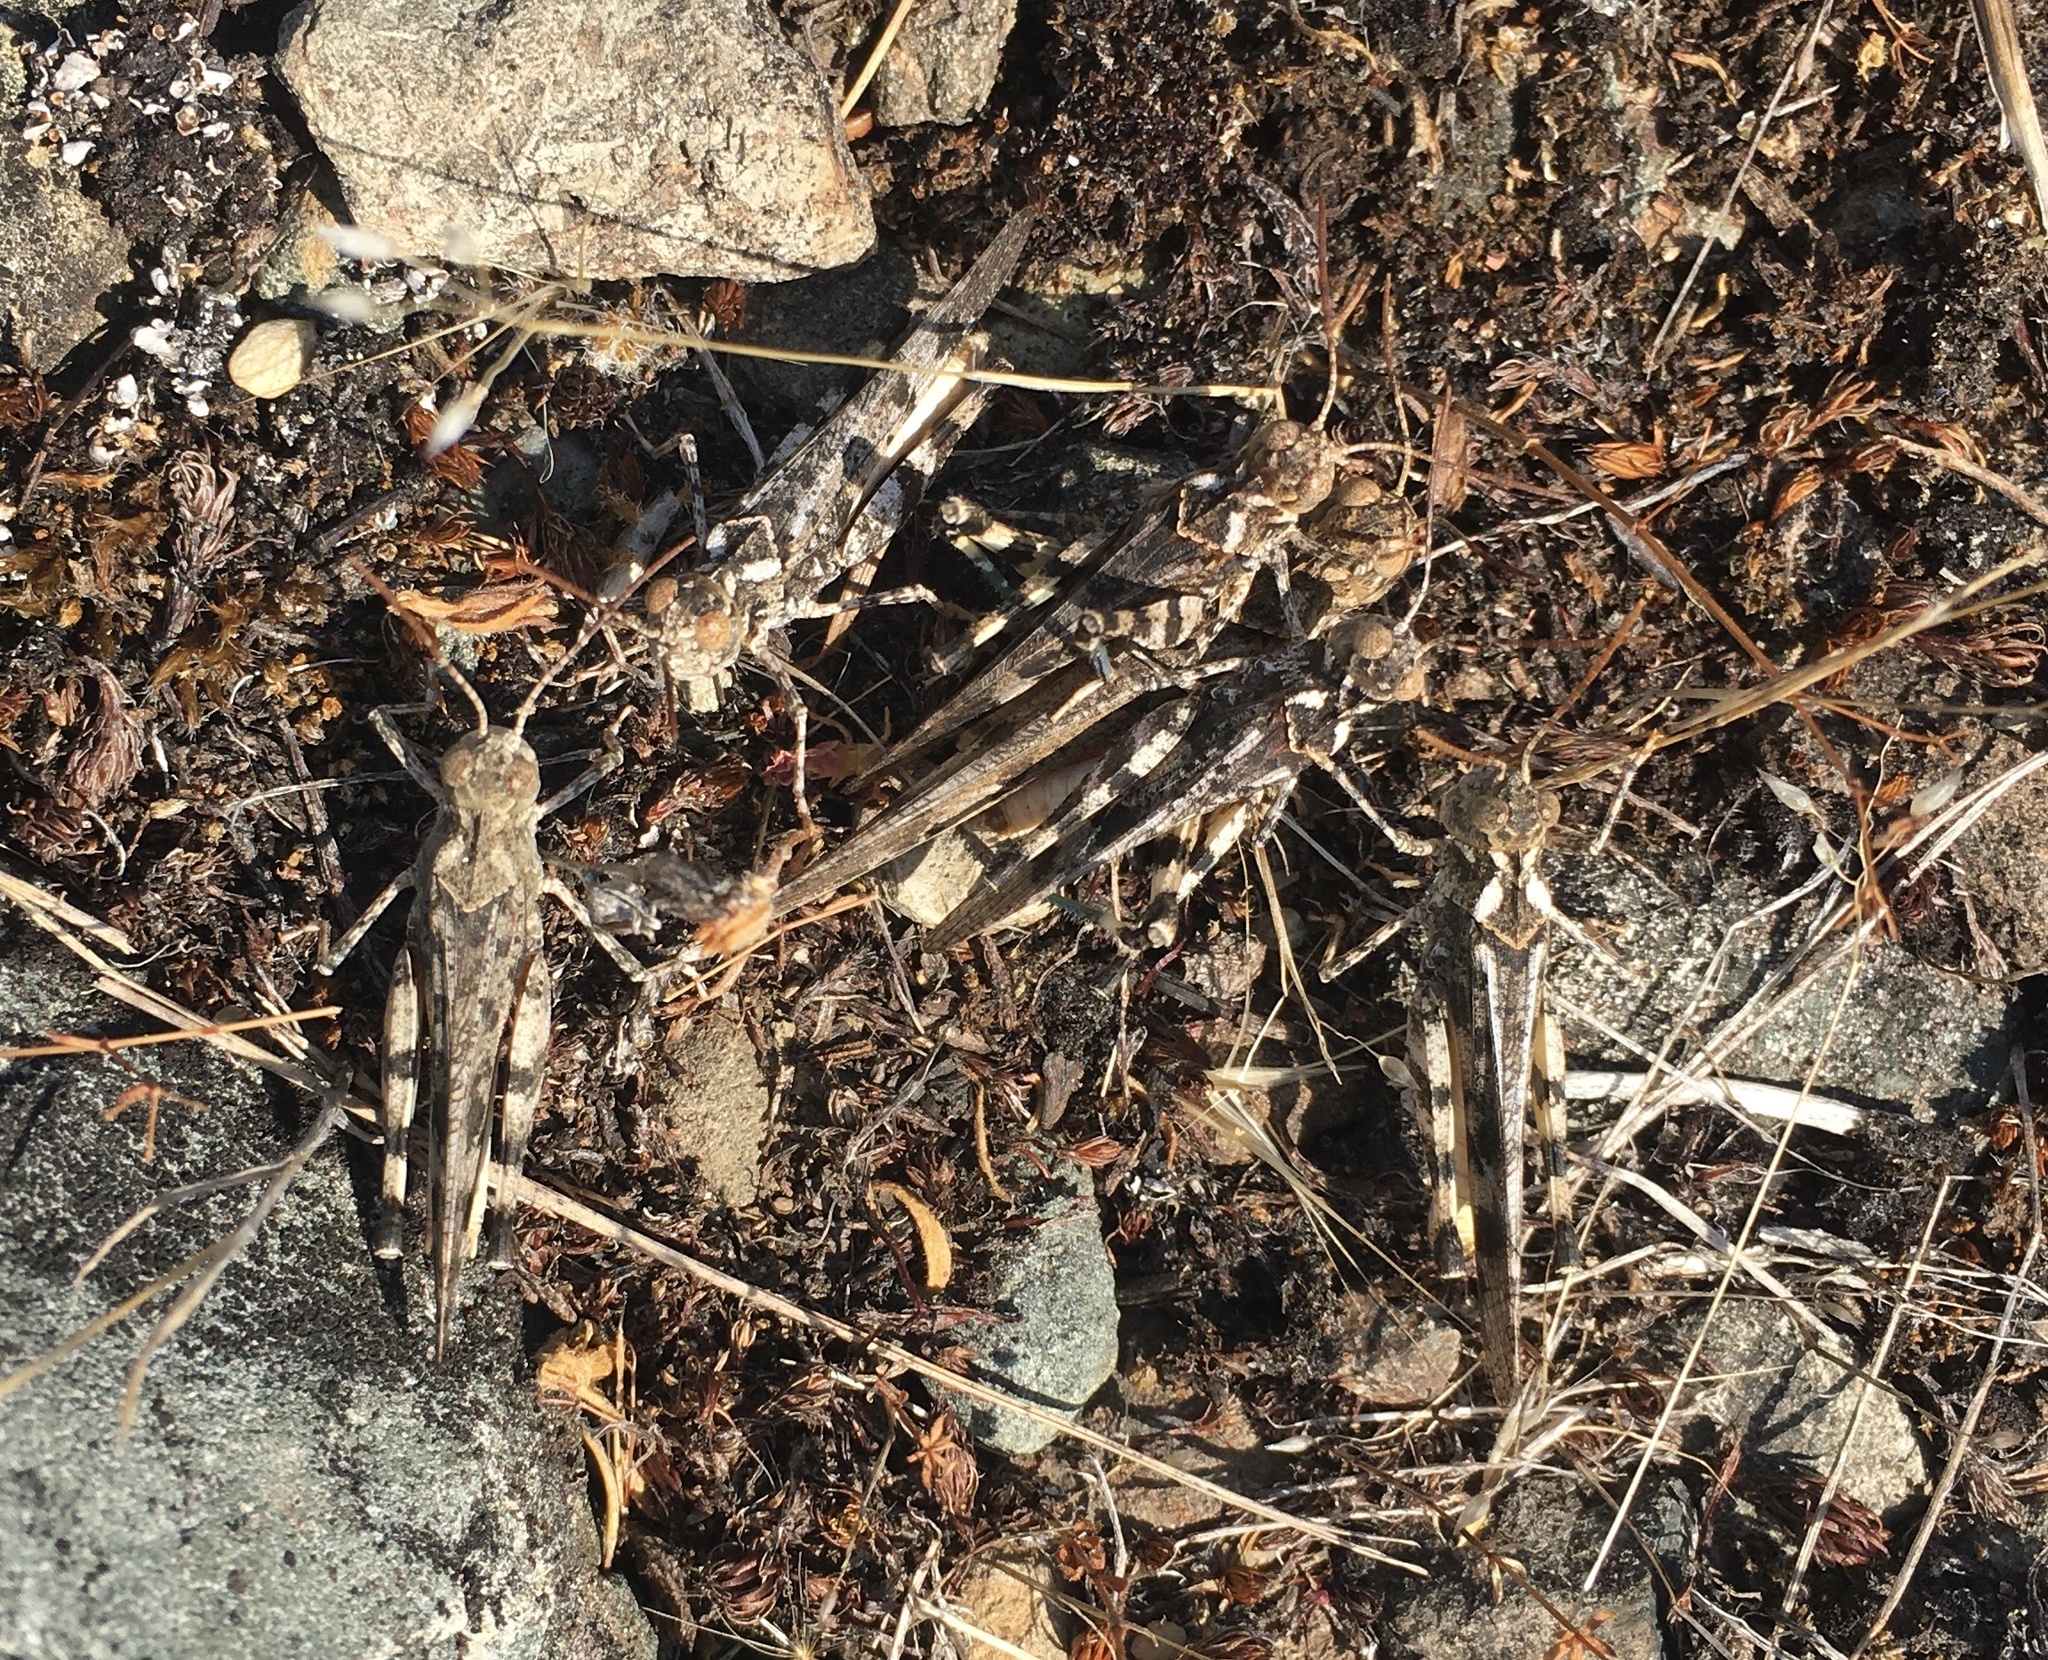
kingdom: Animalia
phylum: Arthropoda
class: Insecta
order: Orthoptera
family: Acrididae
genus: Dissosteira
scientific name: Dissosteira pictipennis
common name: California rose-winged grasshopper
